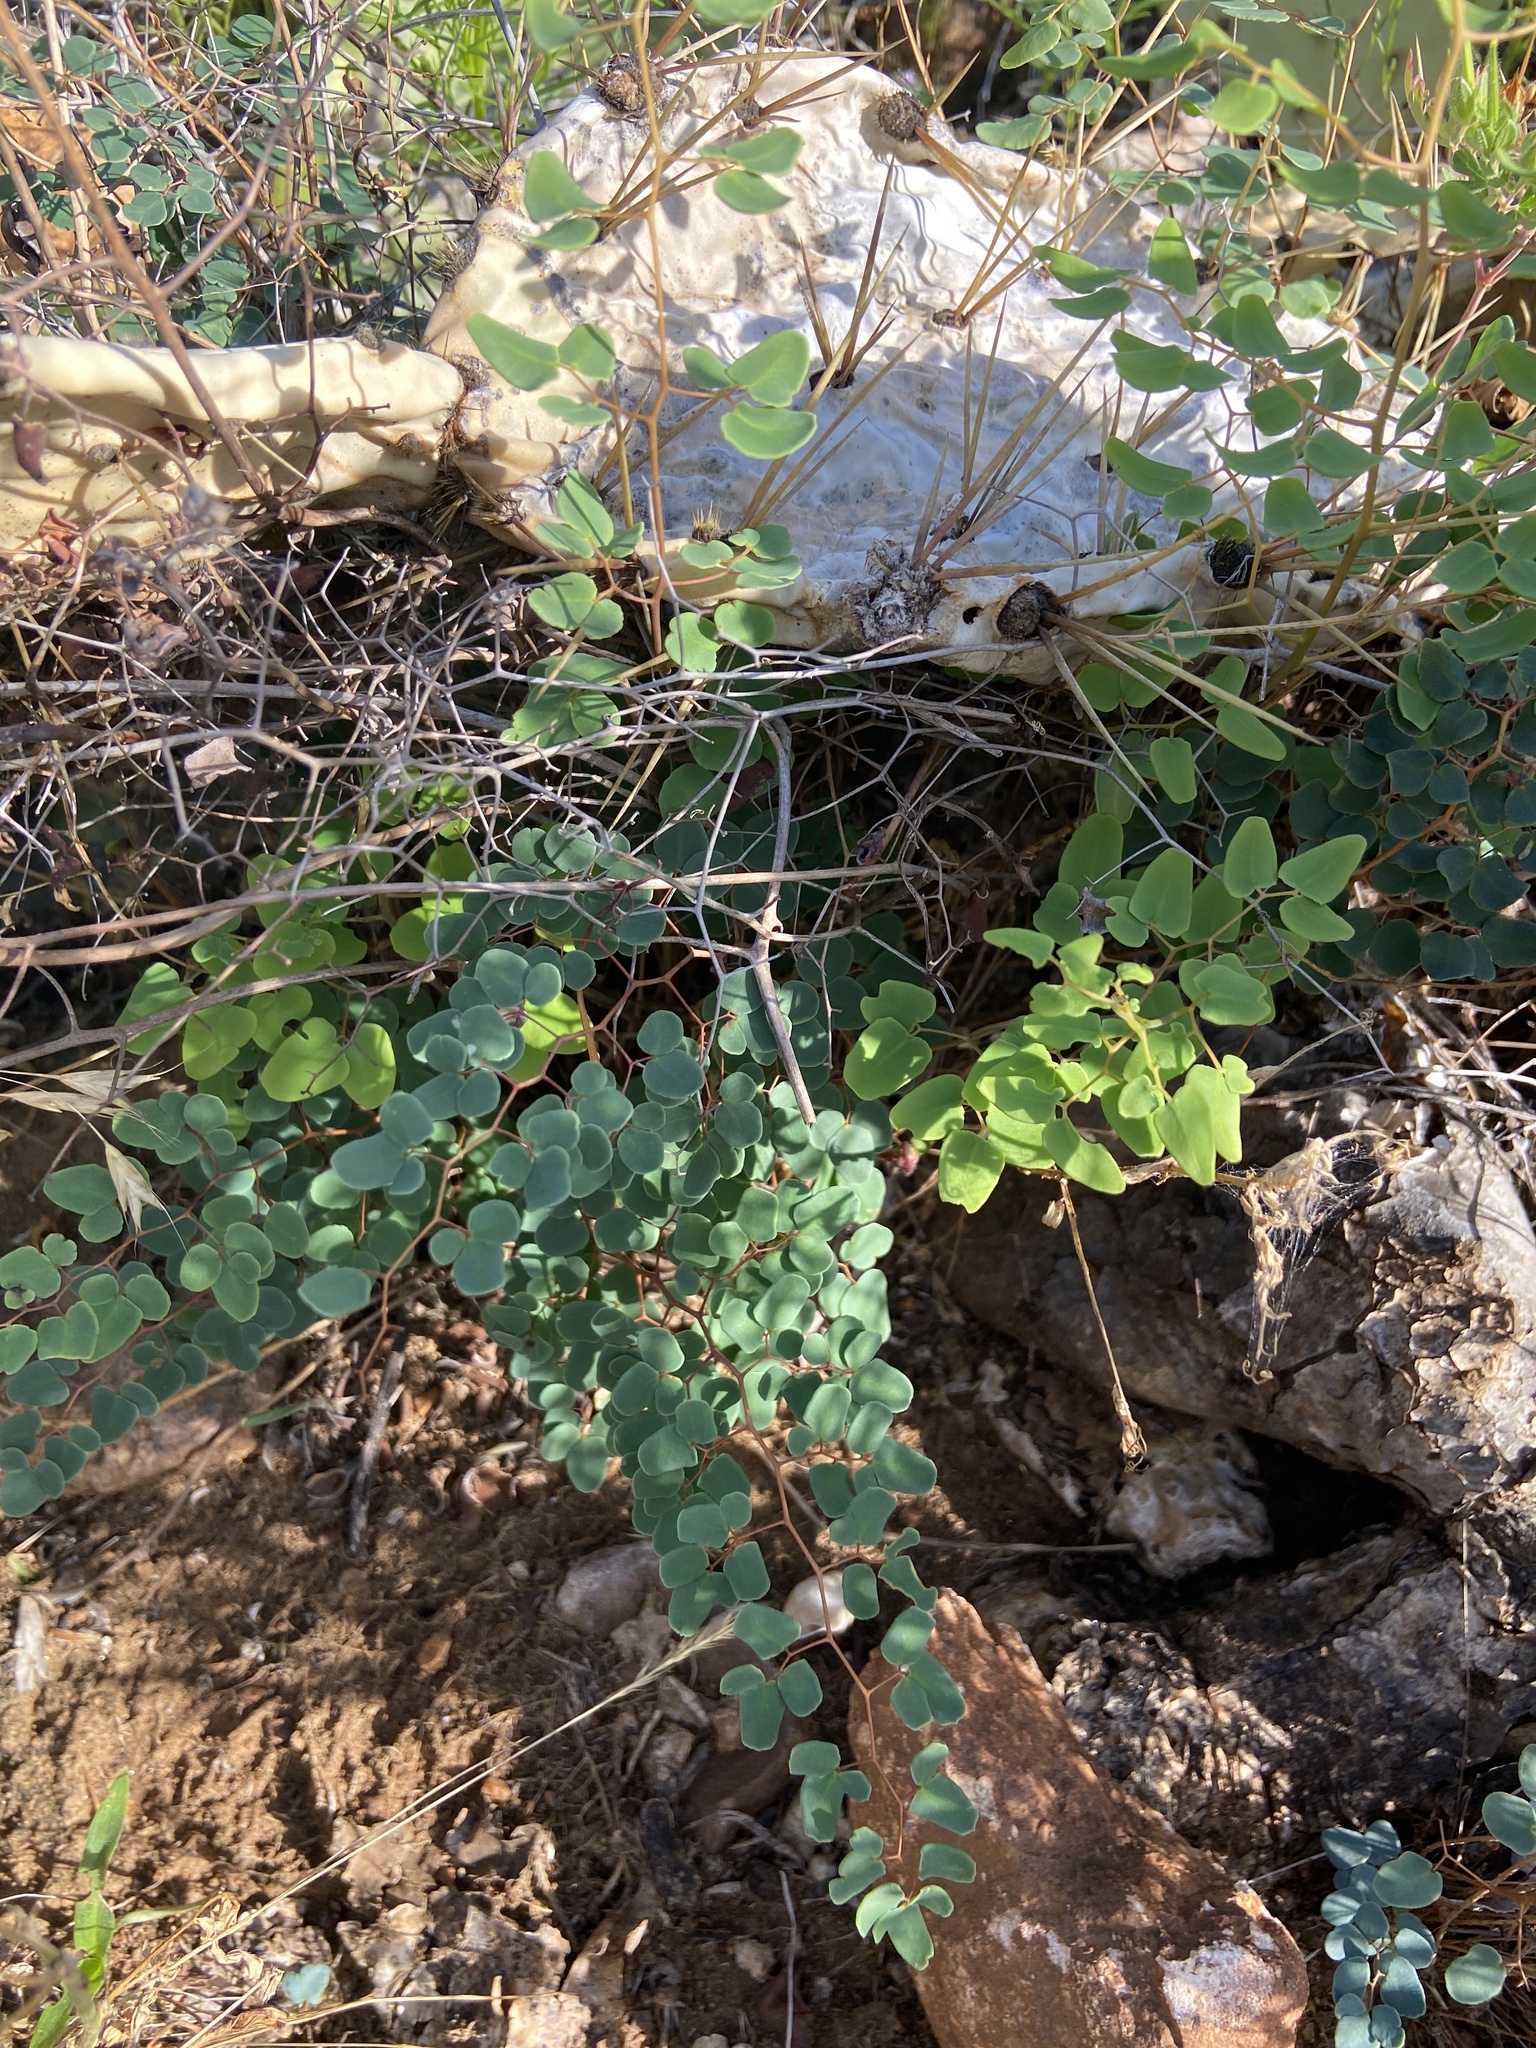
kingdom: Plantae
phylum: Tracheophyta
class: Polypodiopsida
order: Polypodiales
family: Pteridaceae
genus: Pellaea
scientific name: Pellaea ovata
